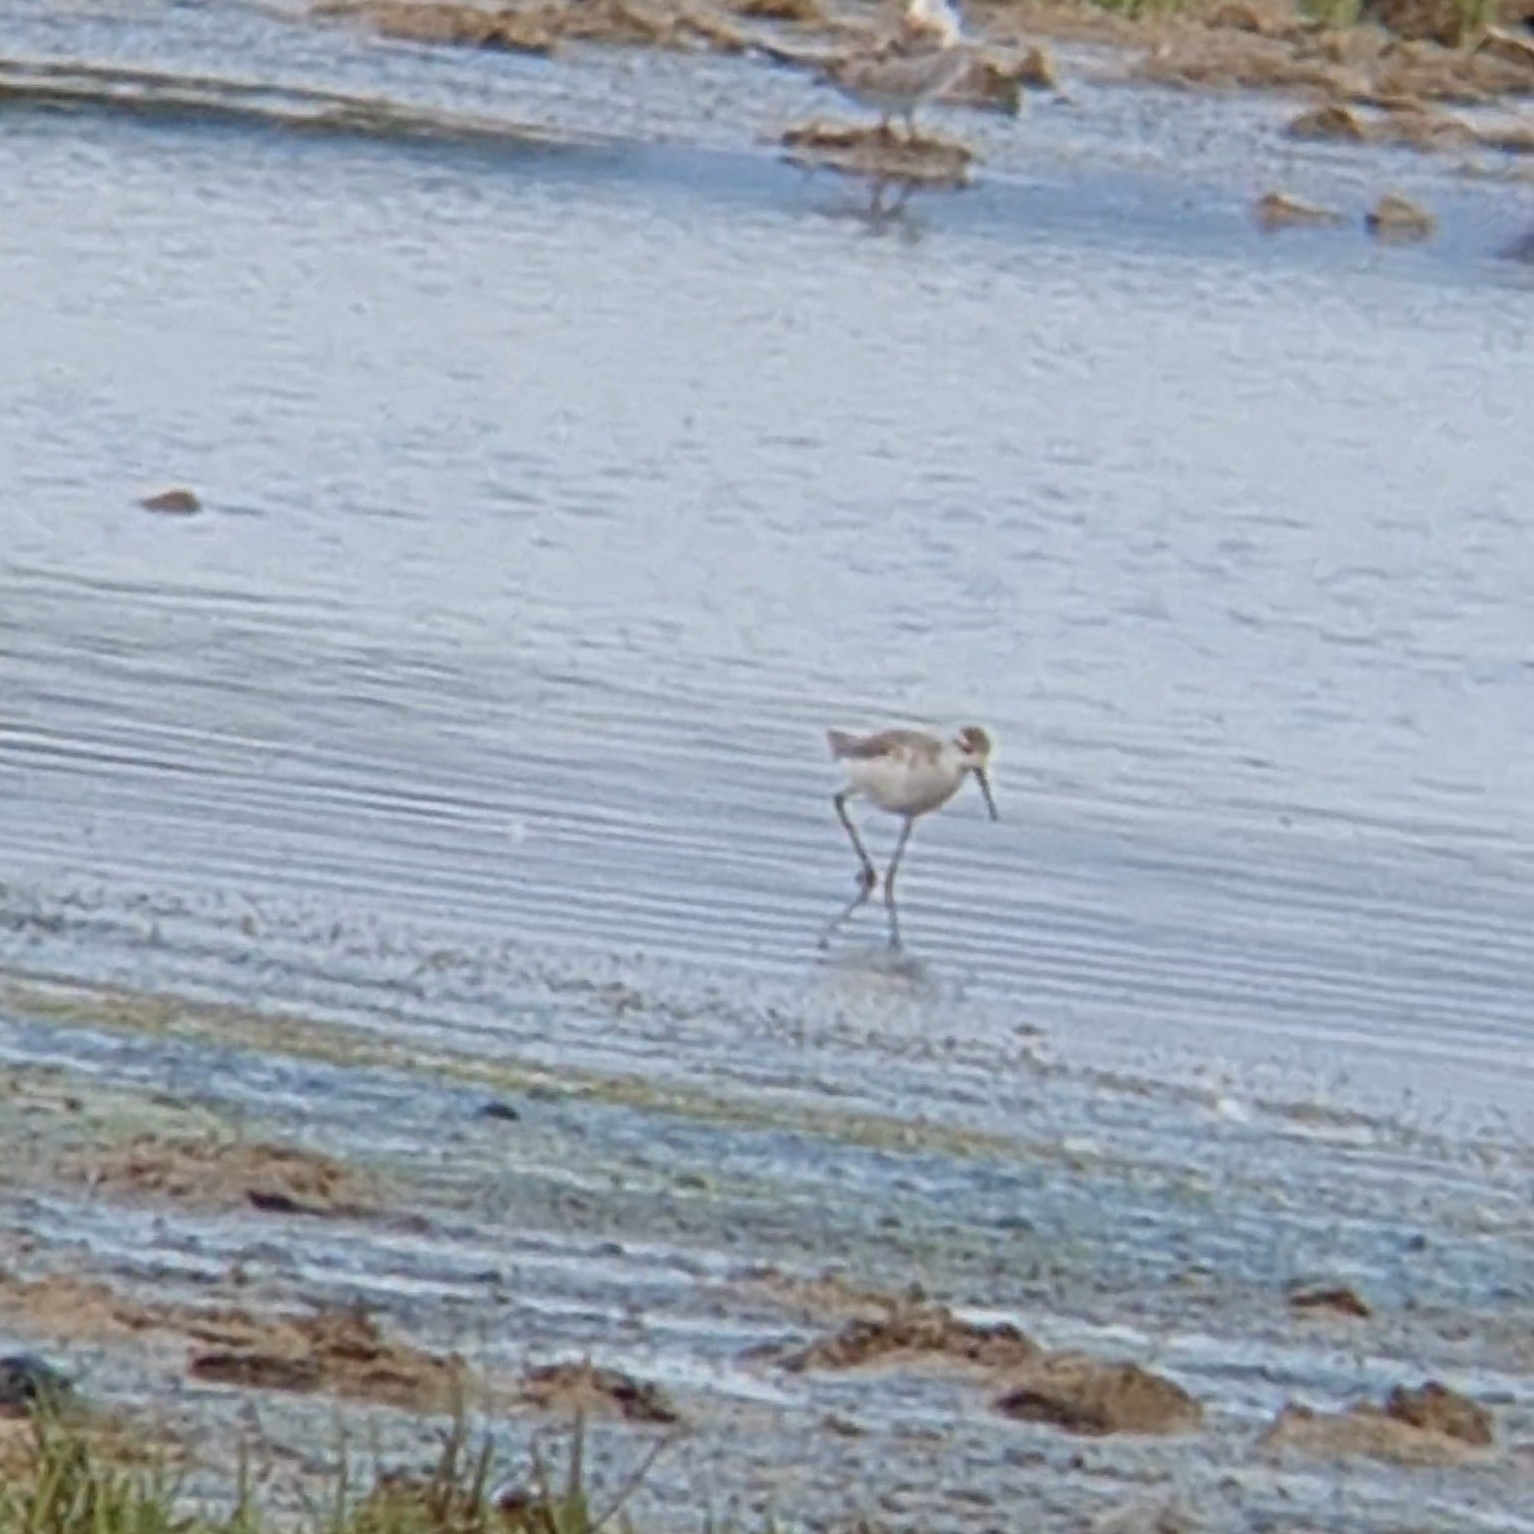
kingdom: Animalia
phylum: Chordata
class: Aves
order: Charadriiformes
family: Scolopacidae
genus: Tringa
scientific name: Tringa stagnatilis
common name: Marsh sandpiper
